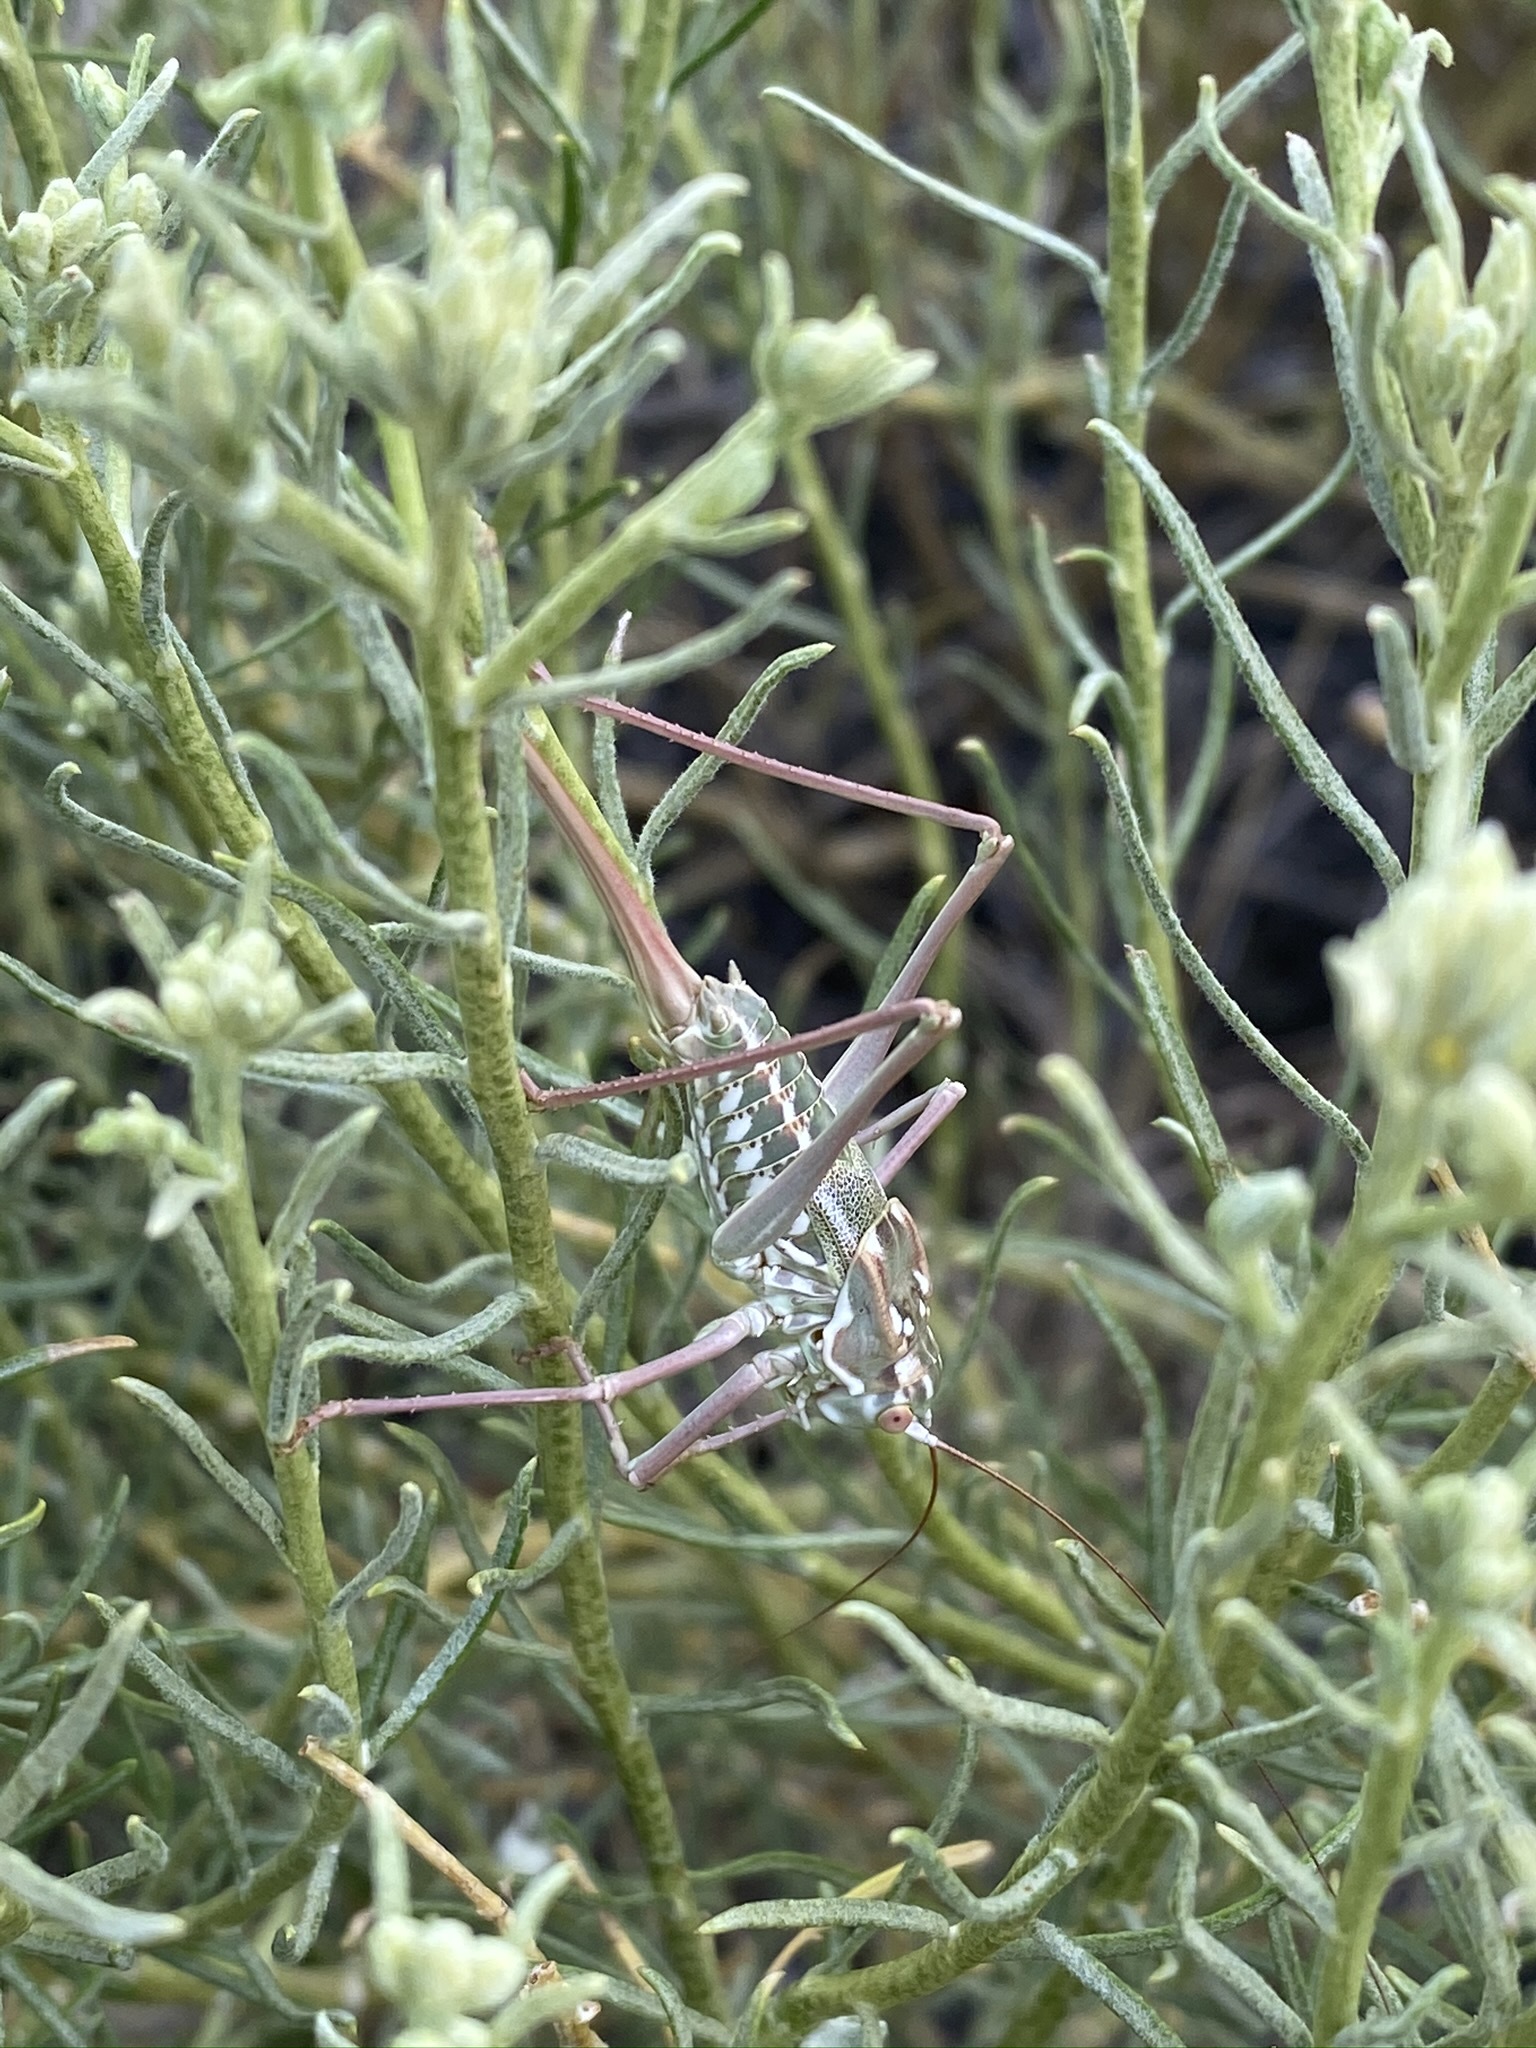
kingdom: Animalia
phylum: Arthropoda
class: Insecta
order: Orthoptera
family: Tettigoniidae
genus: Plagiostira
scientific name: Plagiostira gillettei
